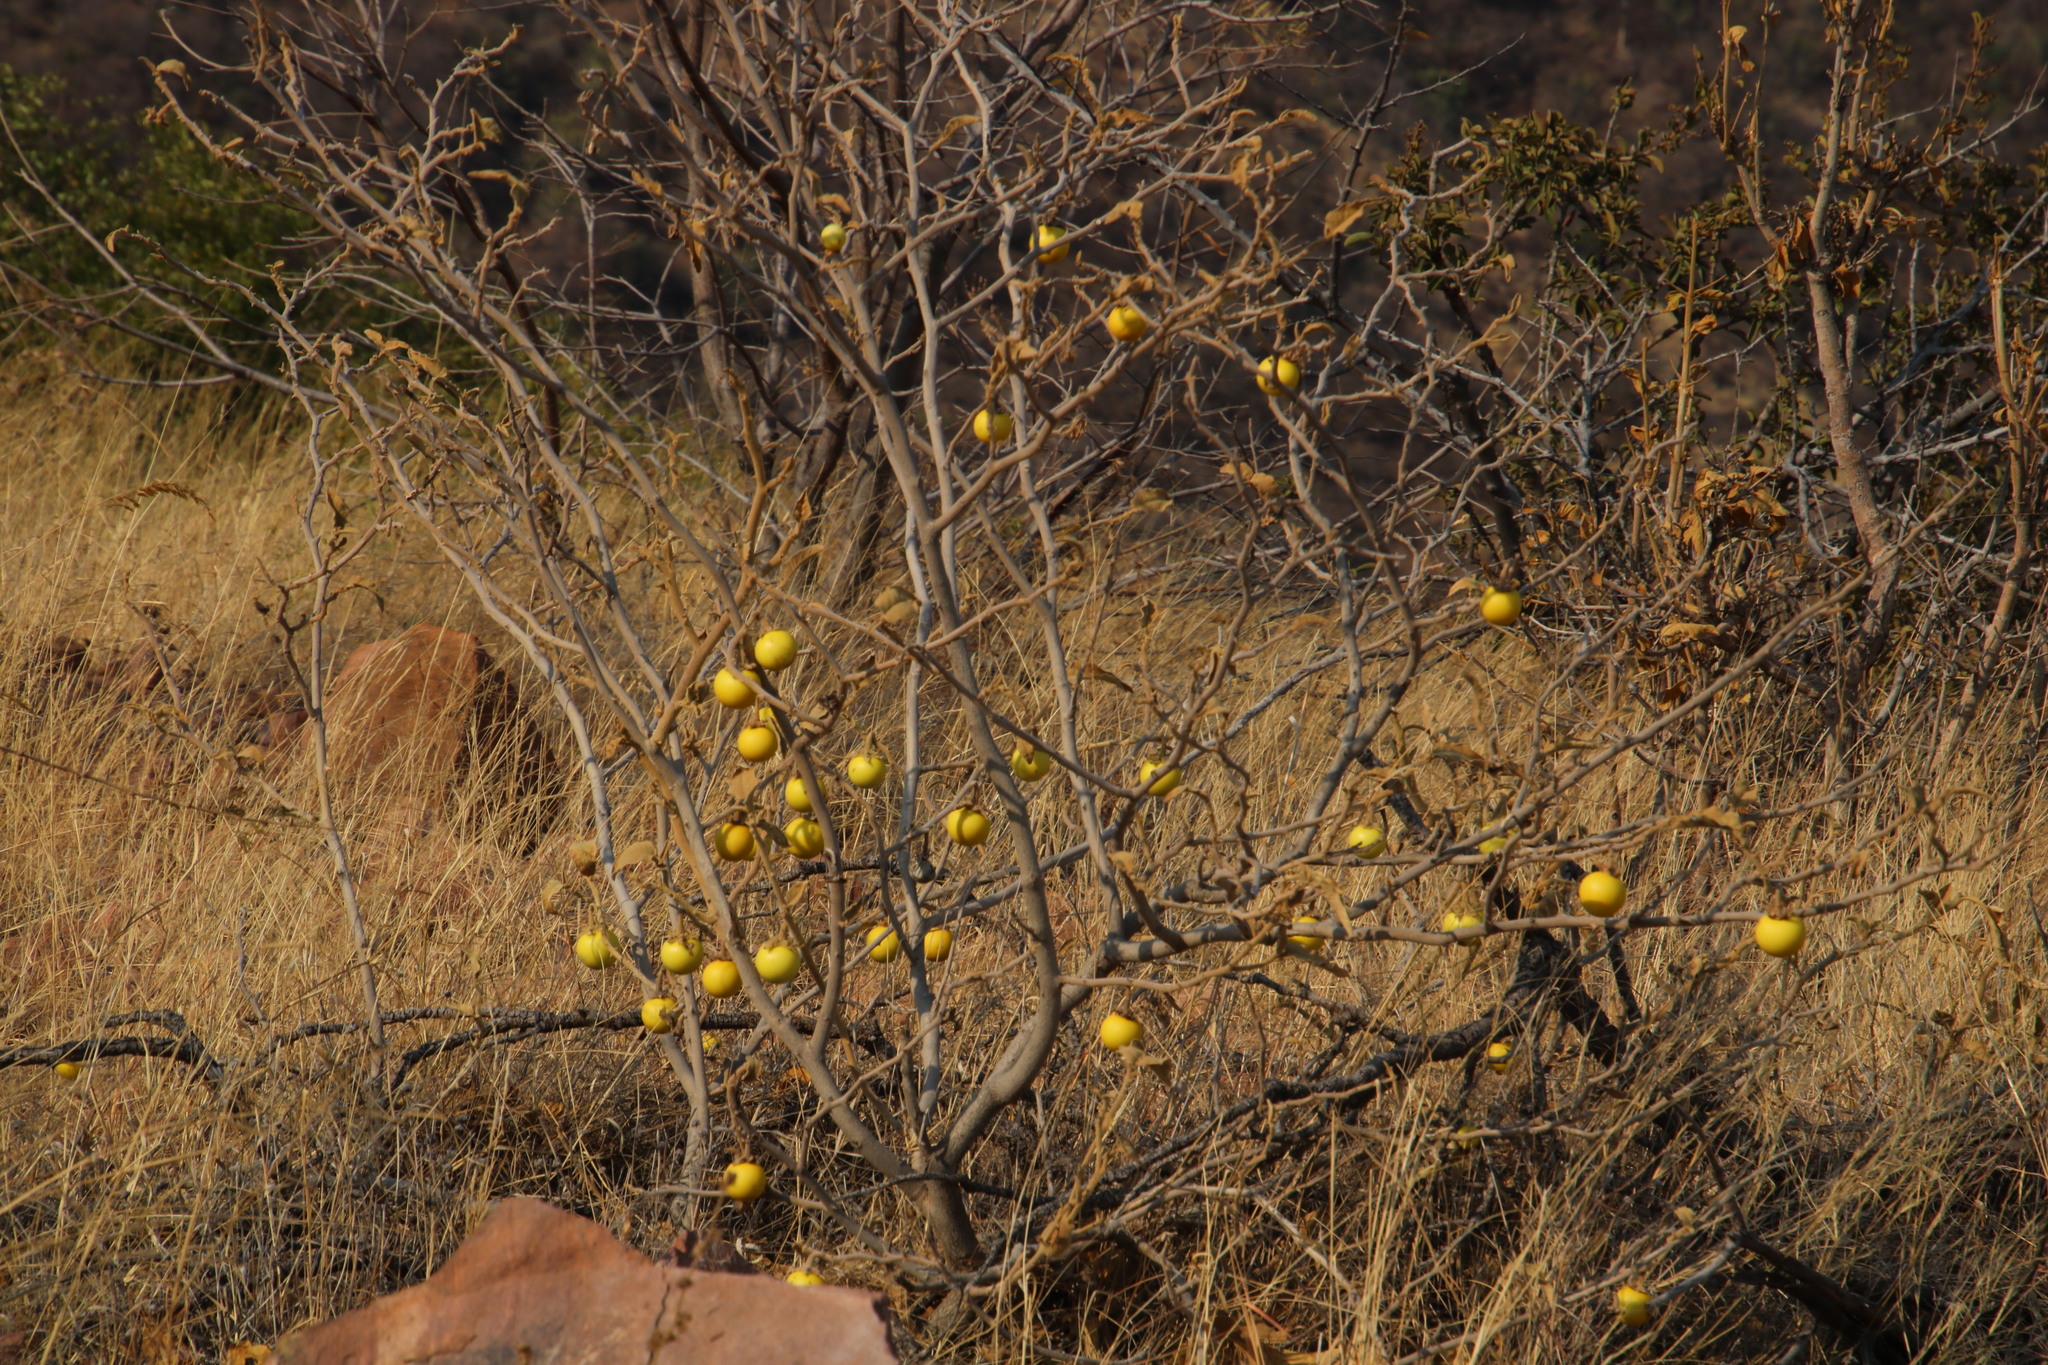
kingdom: Plantae
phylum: Tracheophyta
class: Magnoliopsida
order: Solanales
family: Solanaceae
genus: Solanum
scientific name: Solanum lichtensteinii
